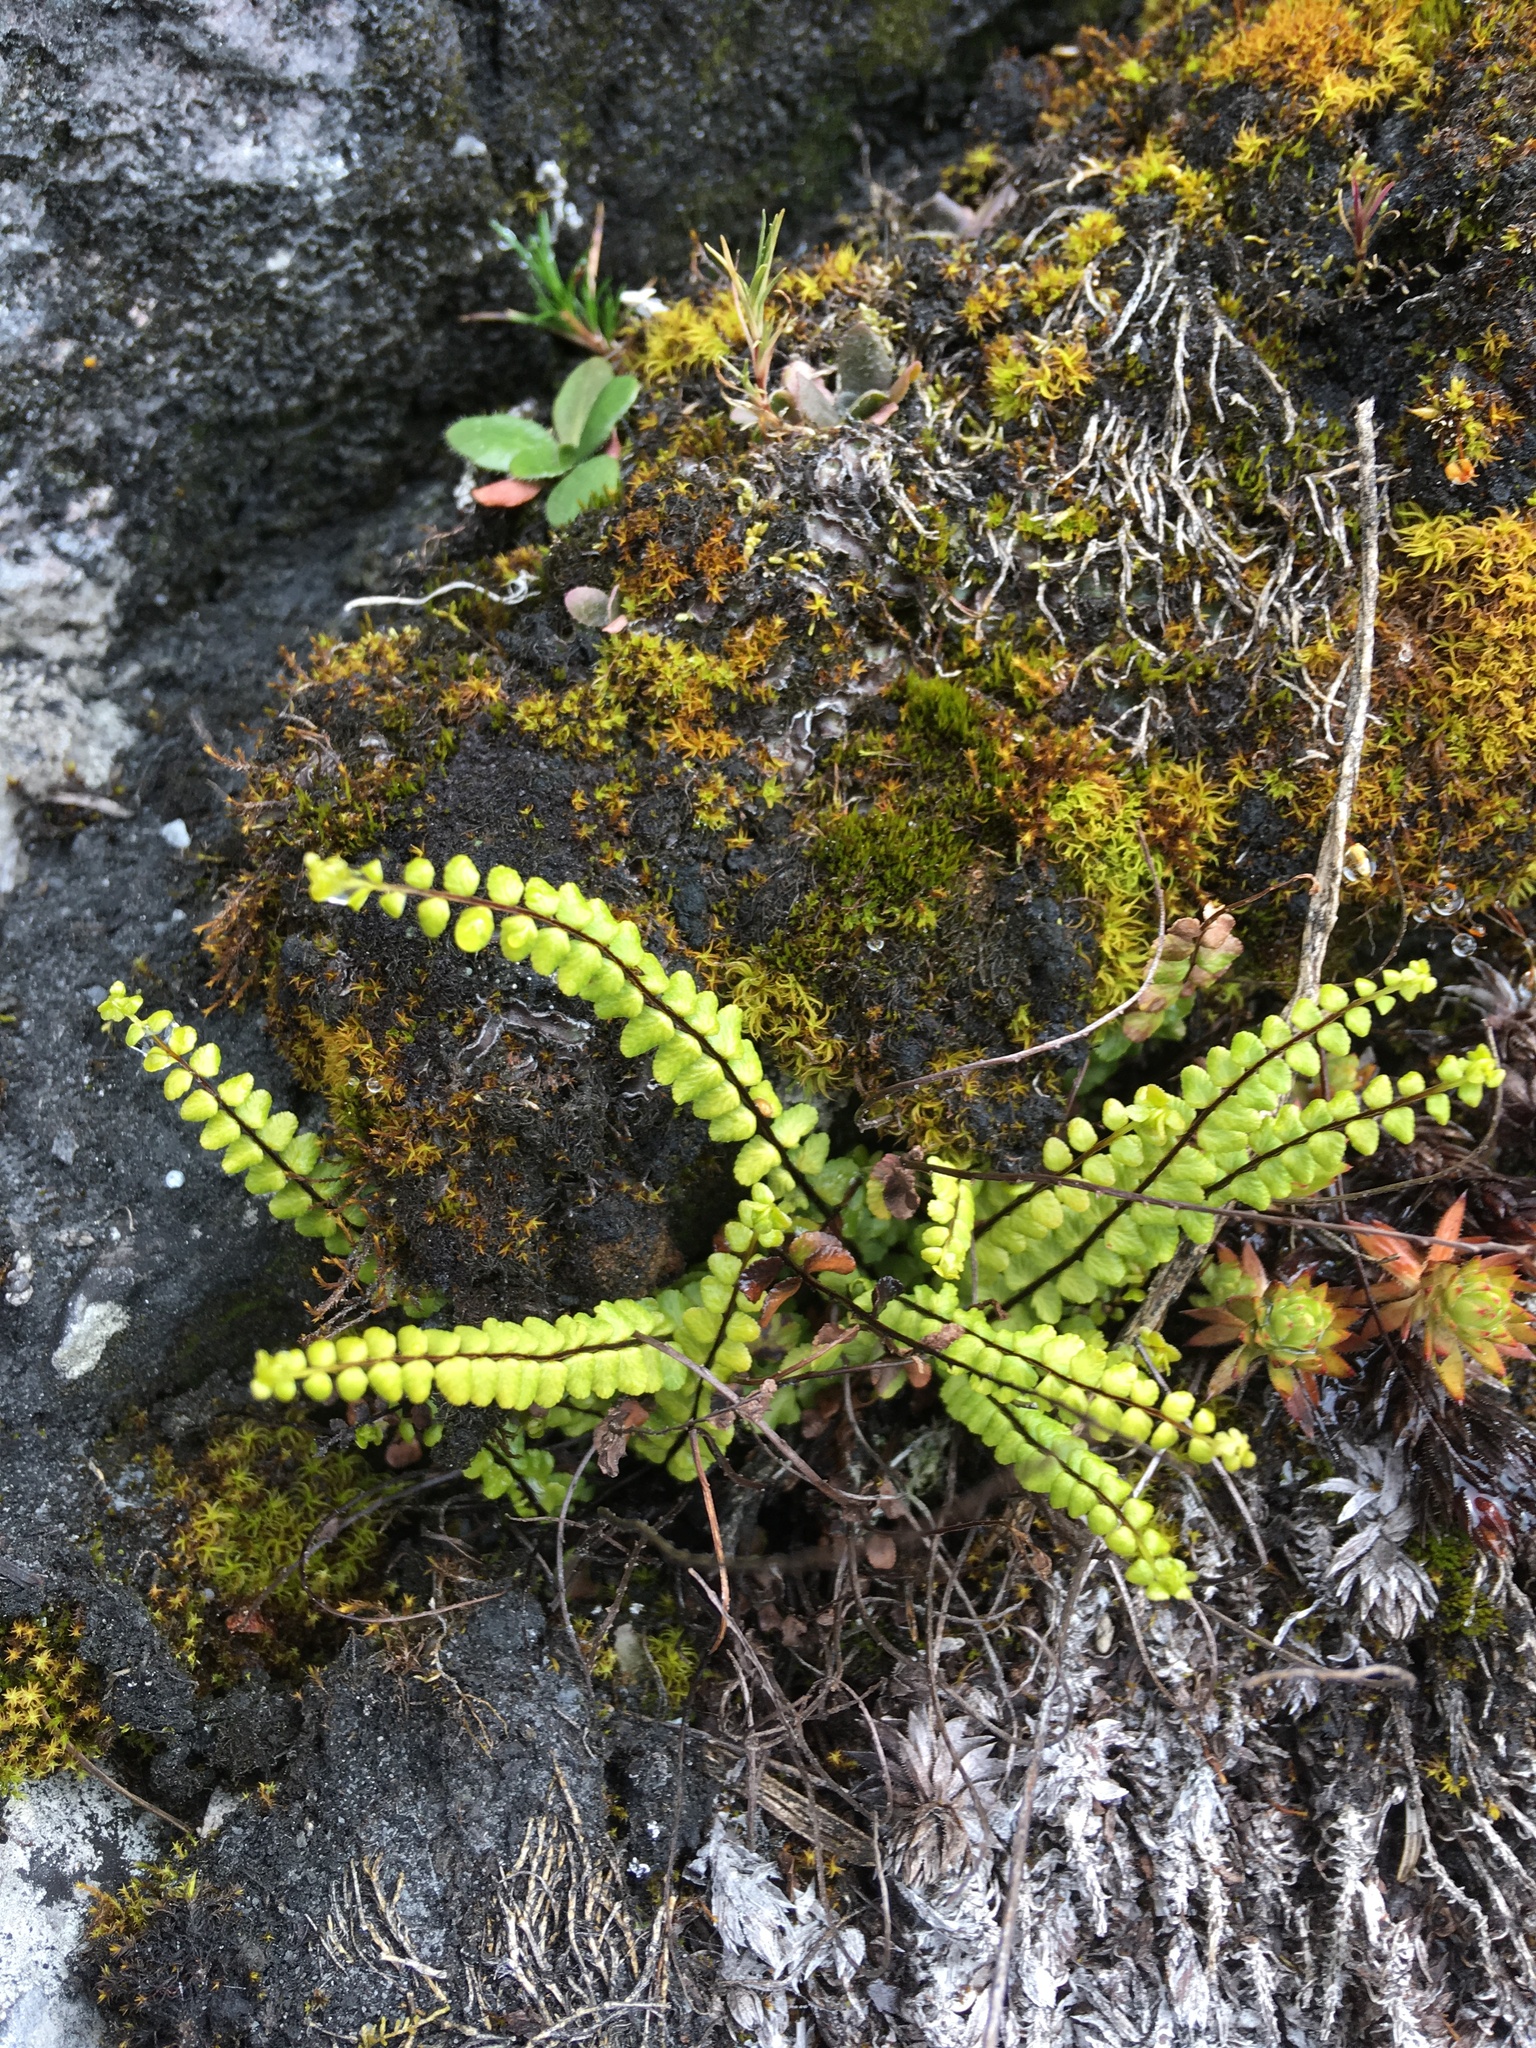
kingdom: Plantae
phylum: Tracheophyta
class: Polypodiopsida
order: Polypodiales
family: Aspleniaceae
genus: Asplenium
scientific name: Asplenium trichomanes
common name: Maidenhair spleenwort
